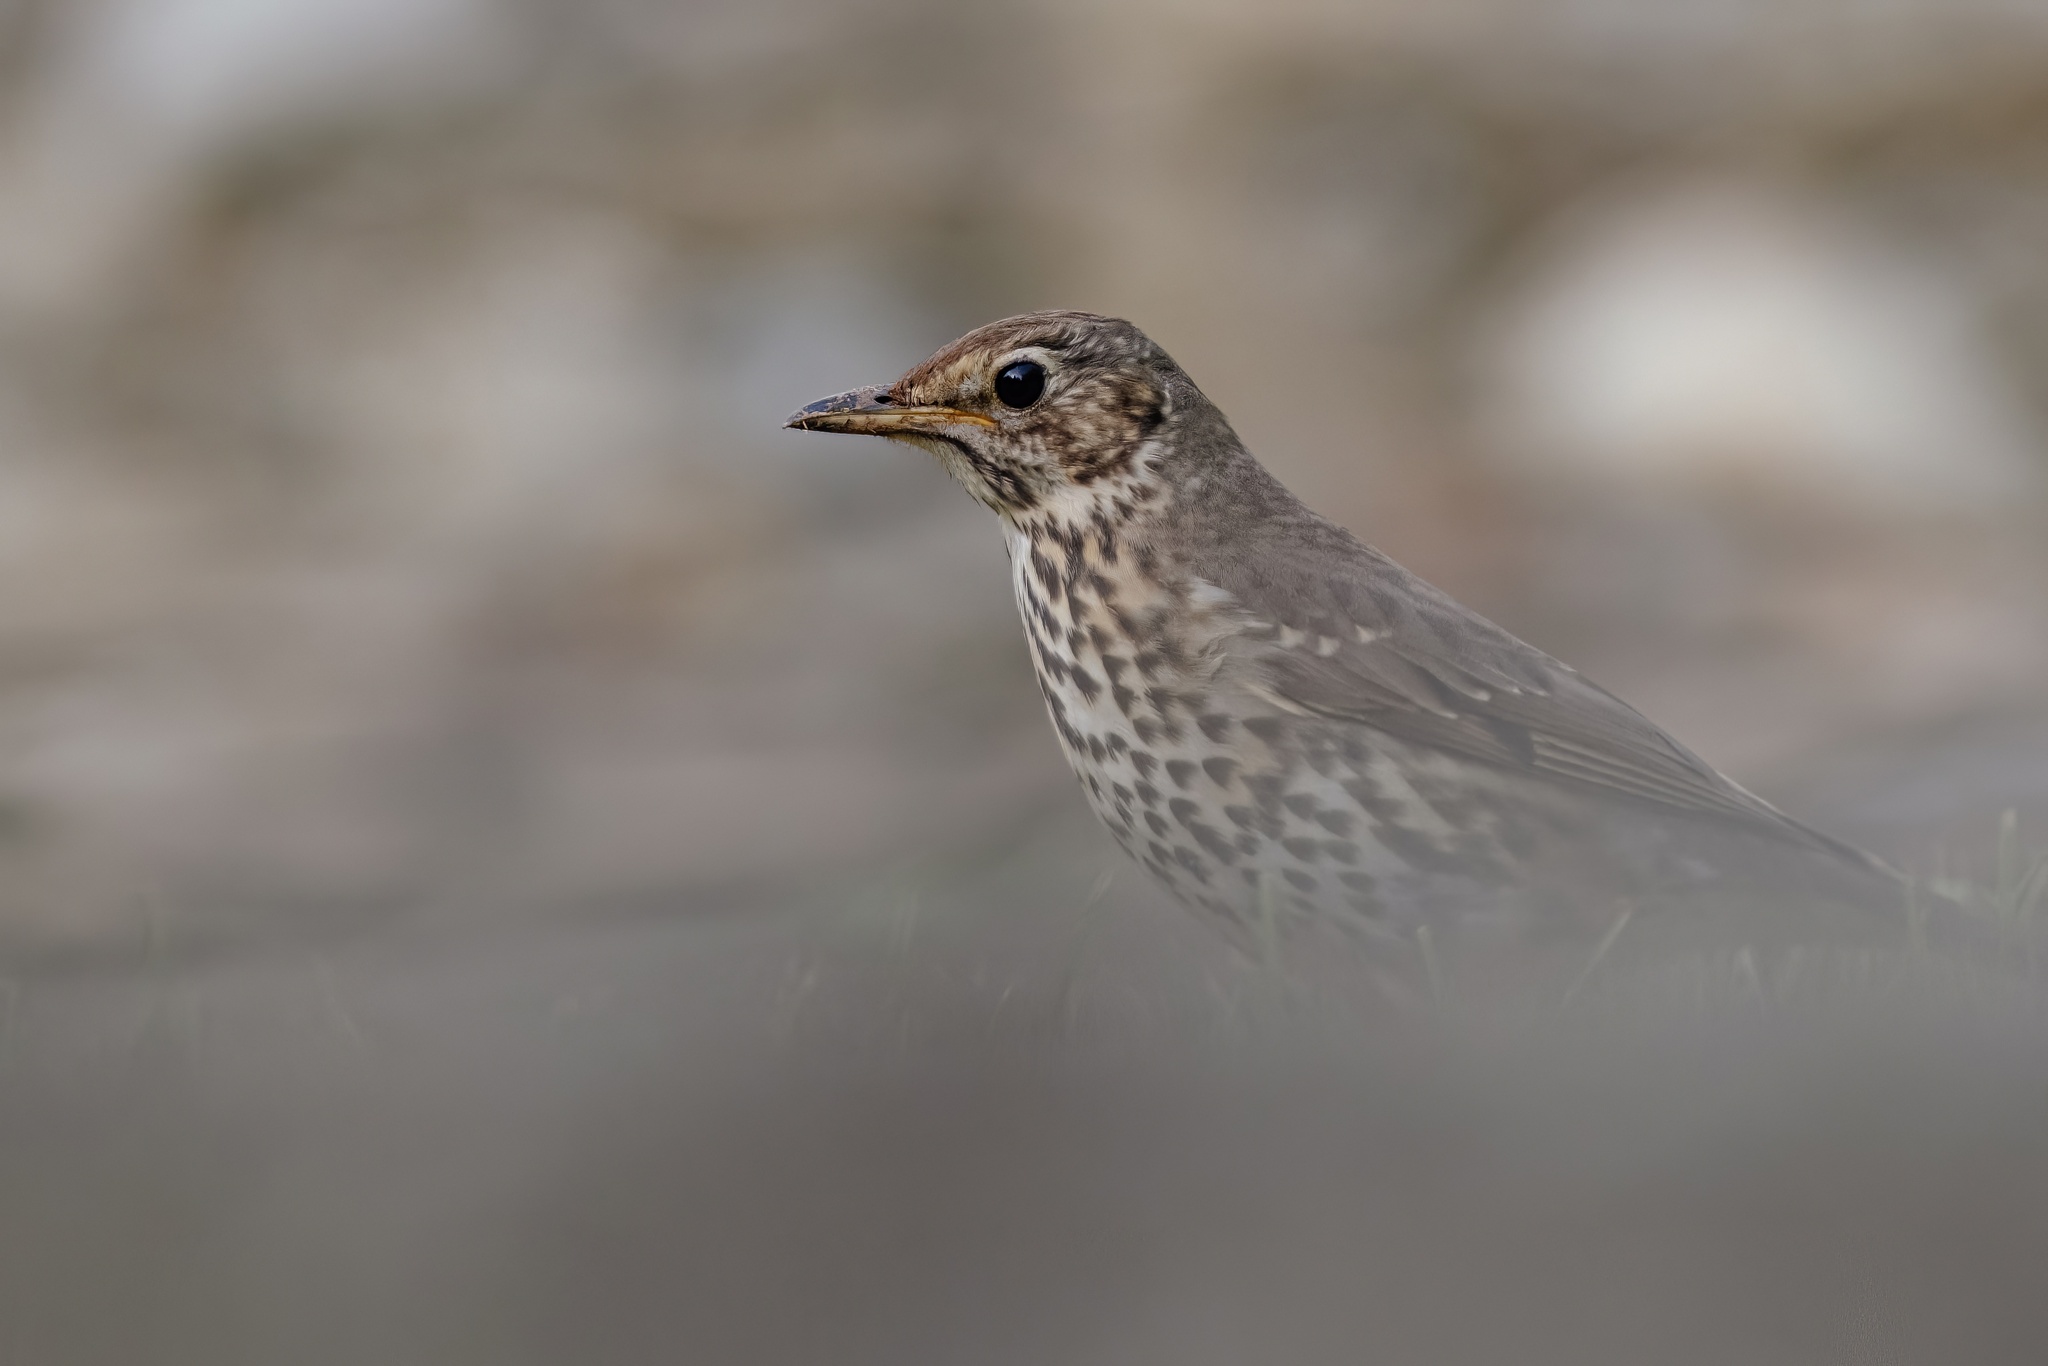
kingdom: Animalia
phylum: Chordata
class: Aves
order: Passeriformes
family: Turdidae
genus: Turdus
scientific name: Turdus philomelos
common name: Song thrush
